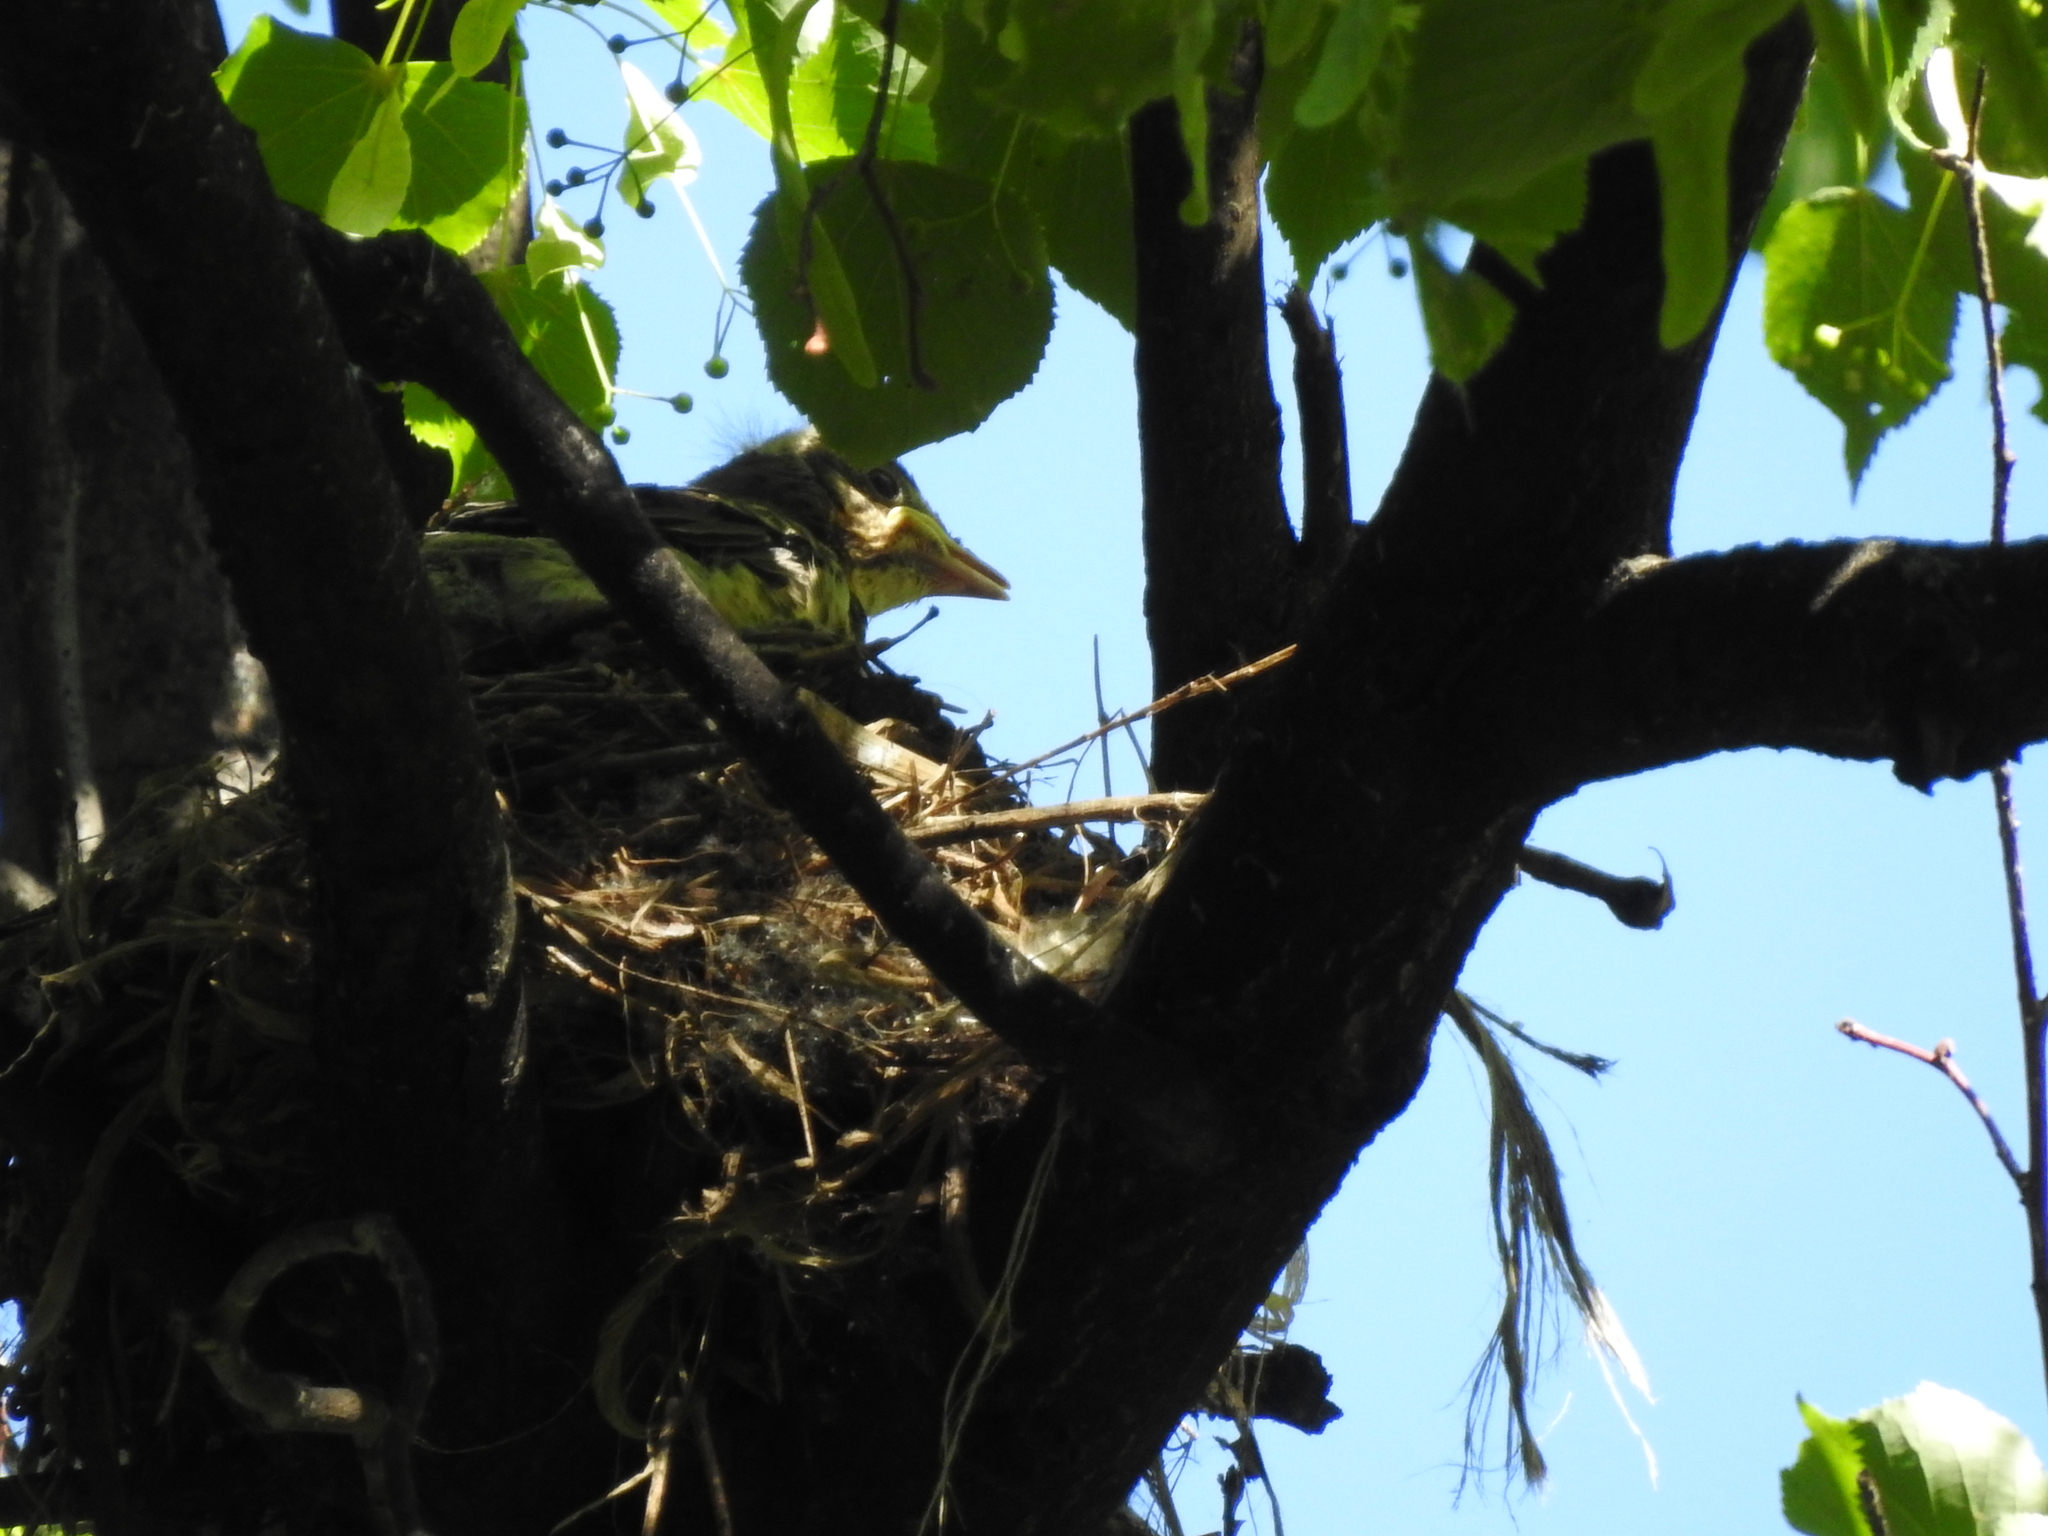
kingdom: Animalia
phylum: Chordata
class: Aves
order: Passeriformes
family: Turdidae
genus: Turdus
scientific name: Turdus pilaris
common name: Fieldfare
